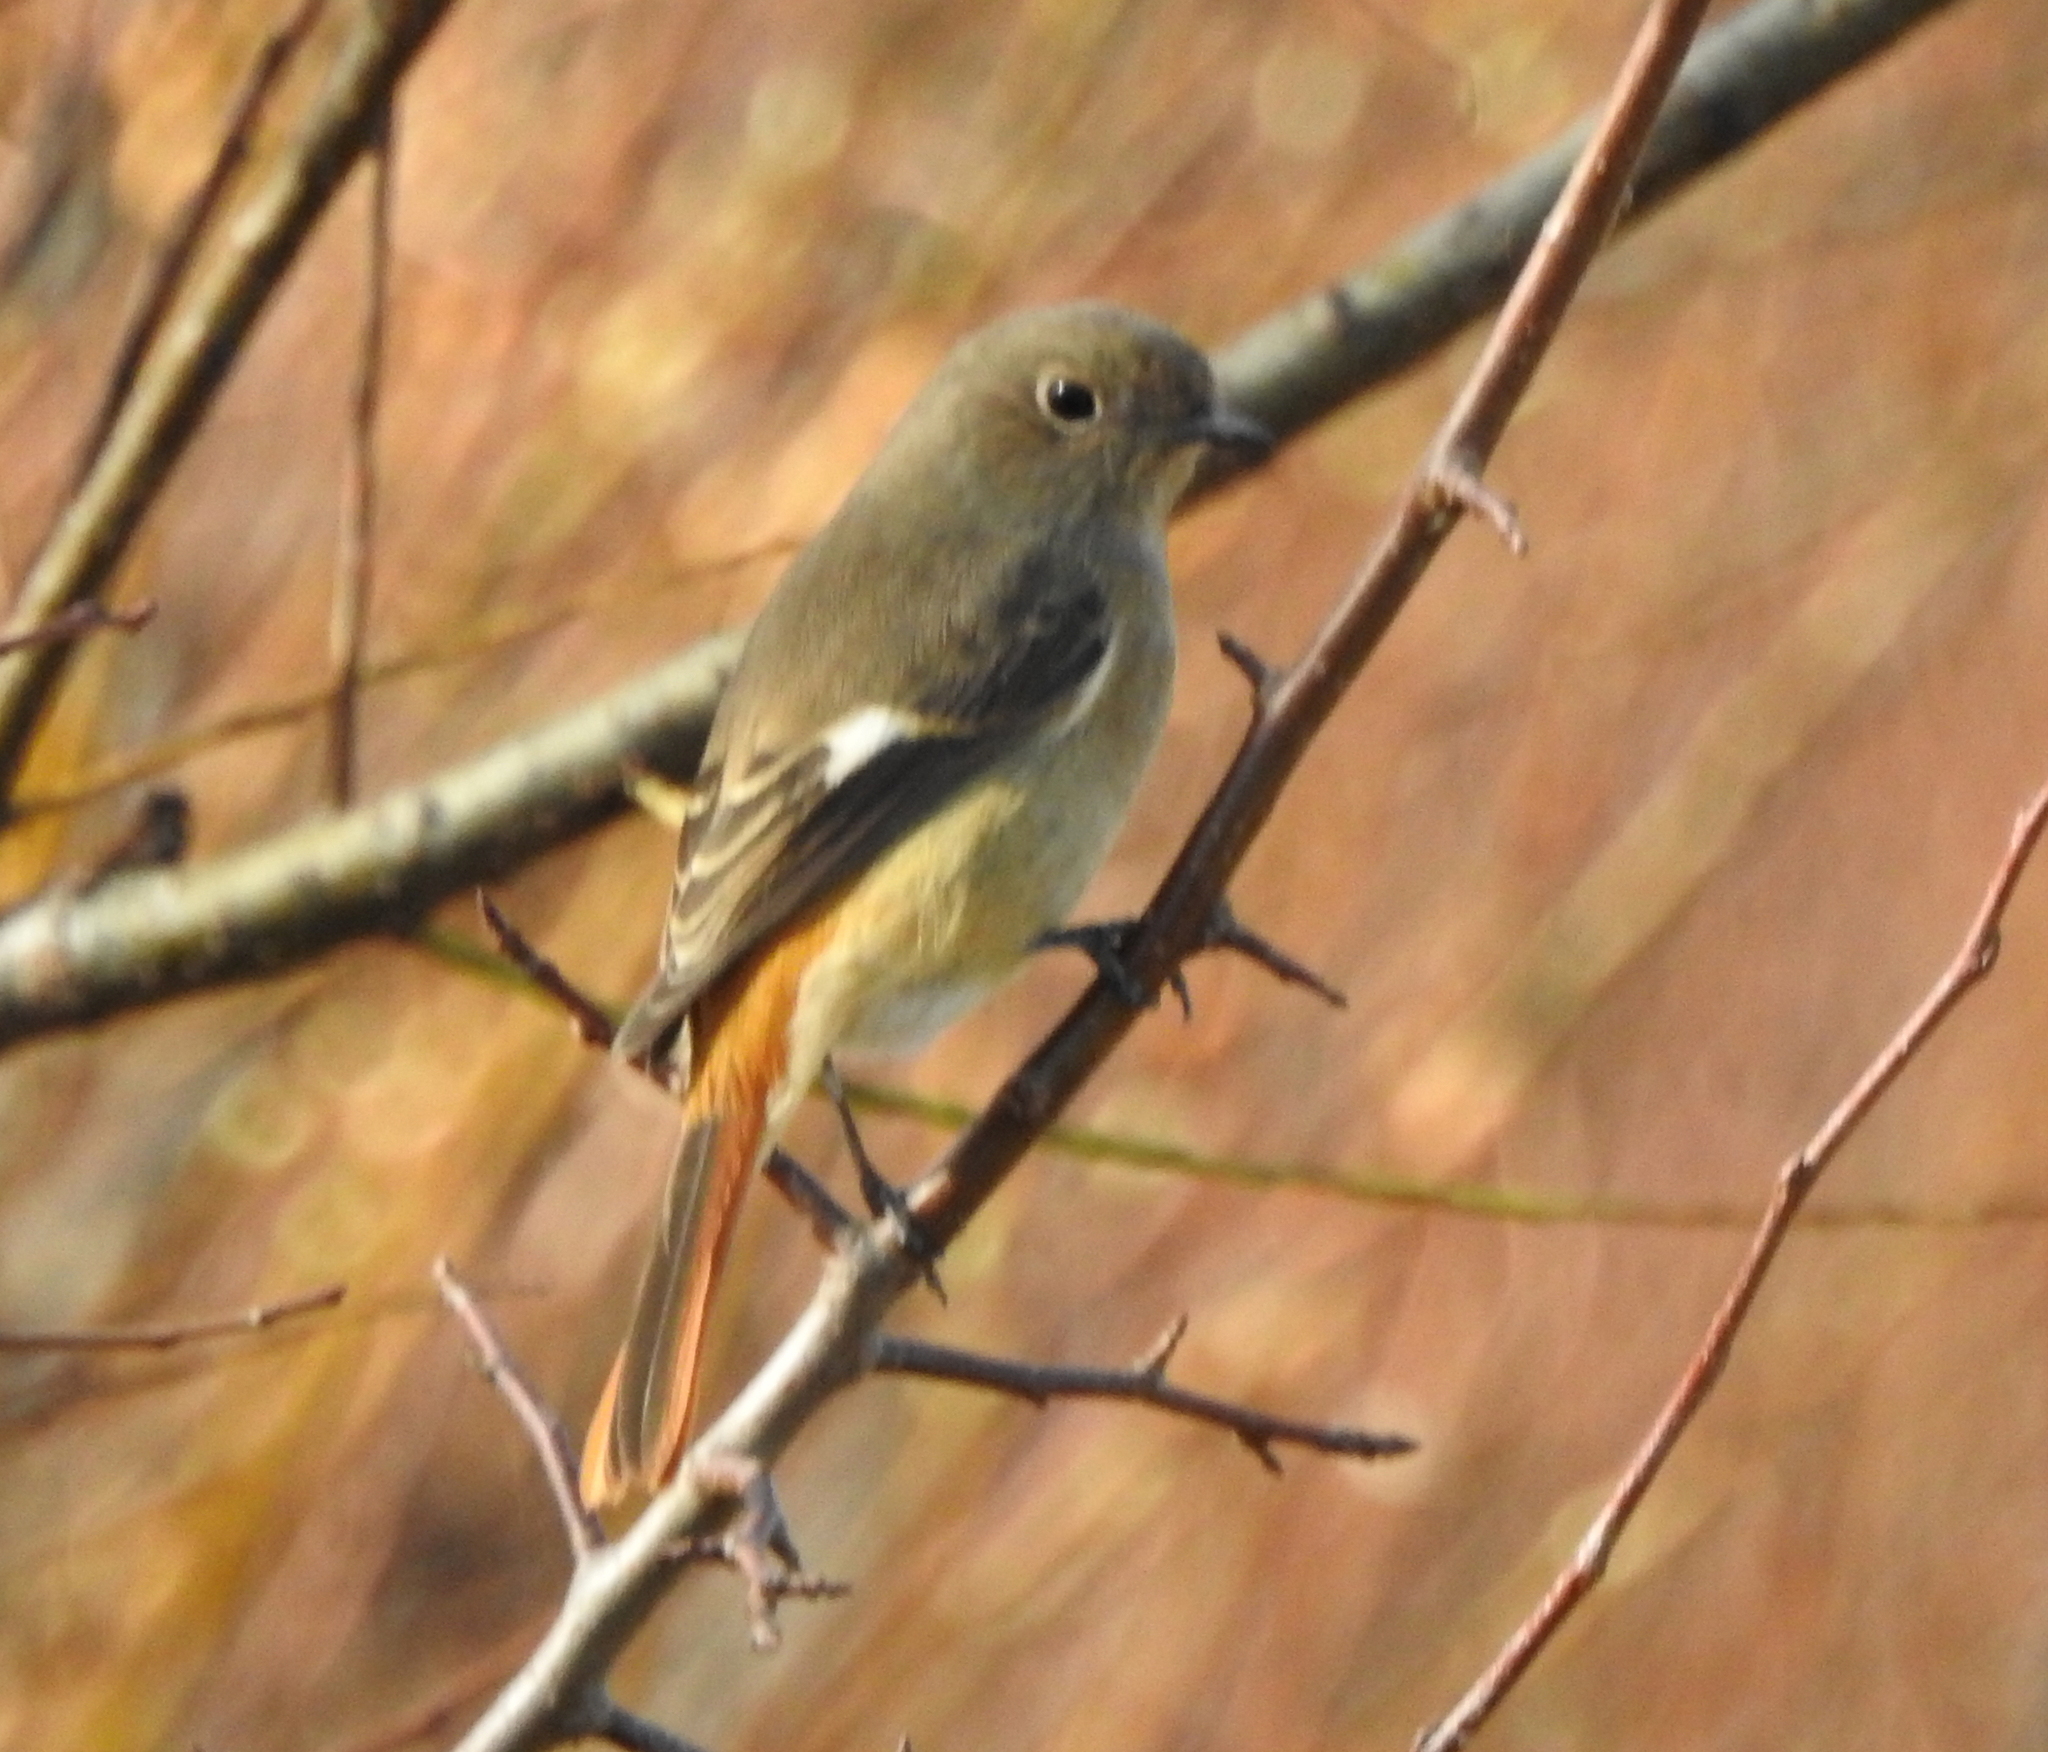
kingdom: Animalia
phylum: Chordata
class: Aves
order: Passeriformes
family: Muscicapidae
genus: Phoenicurus
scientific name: Phoenicurus auroreus
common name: Daurian redstart
